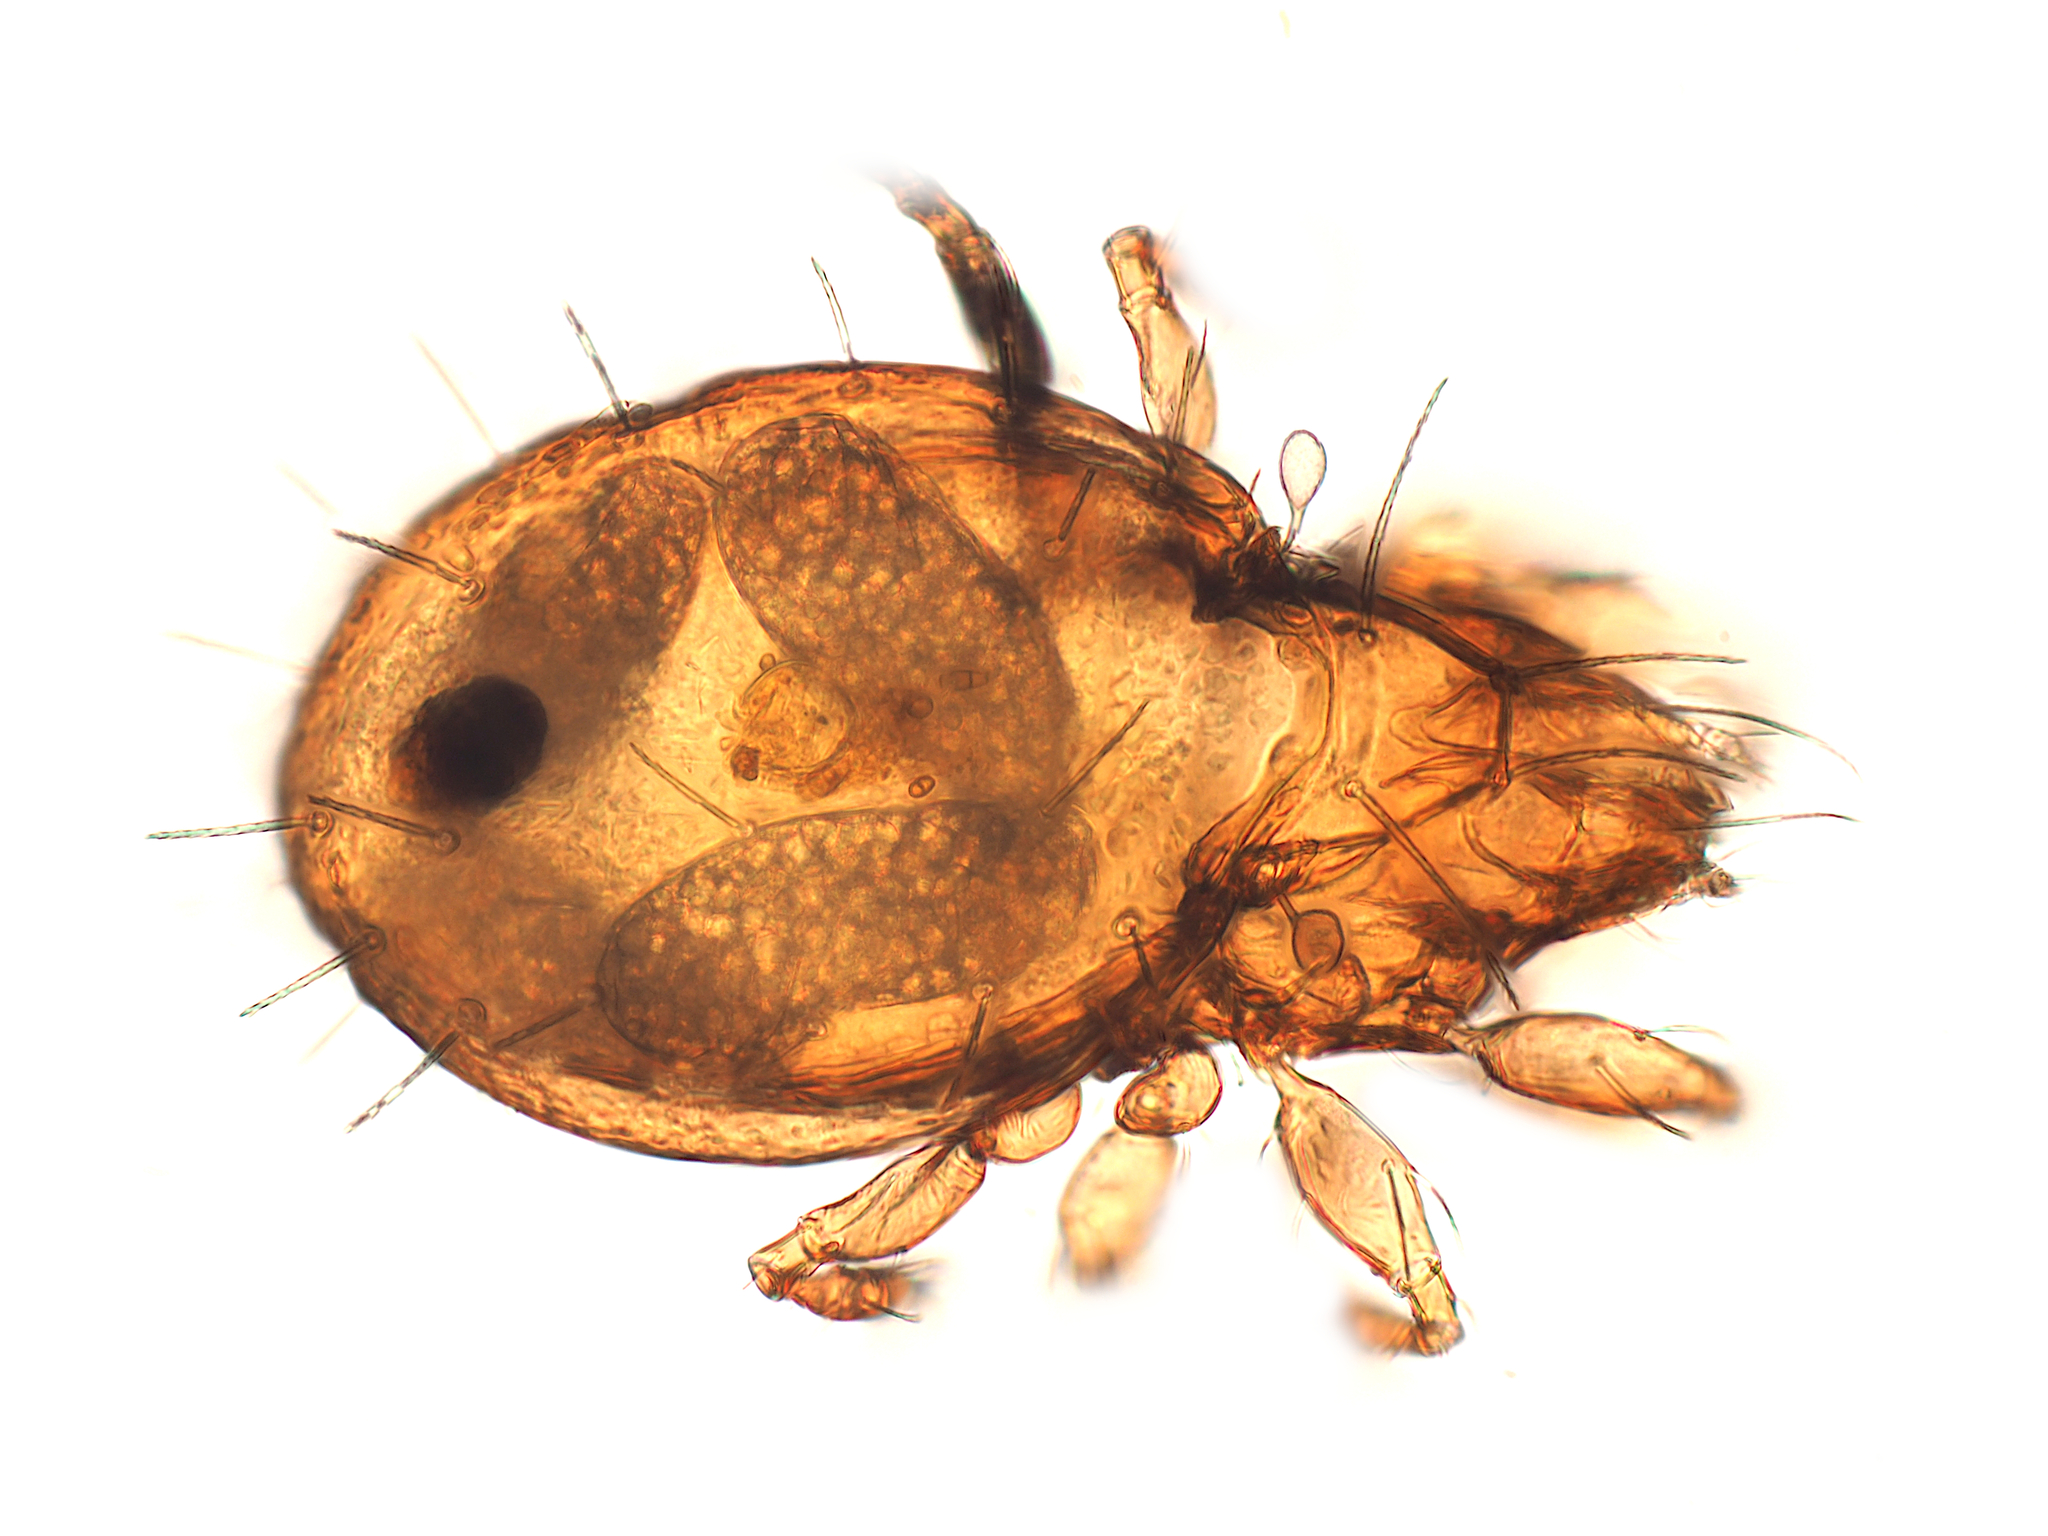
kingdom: Animalia
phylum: Arthropoda
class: Arachnida
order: Sarcoptiformes
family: Oribatulidae
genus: Zygoribatula
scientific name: Zygoribatula
